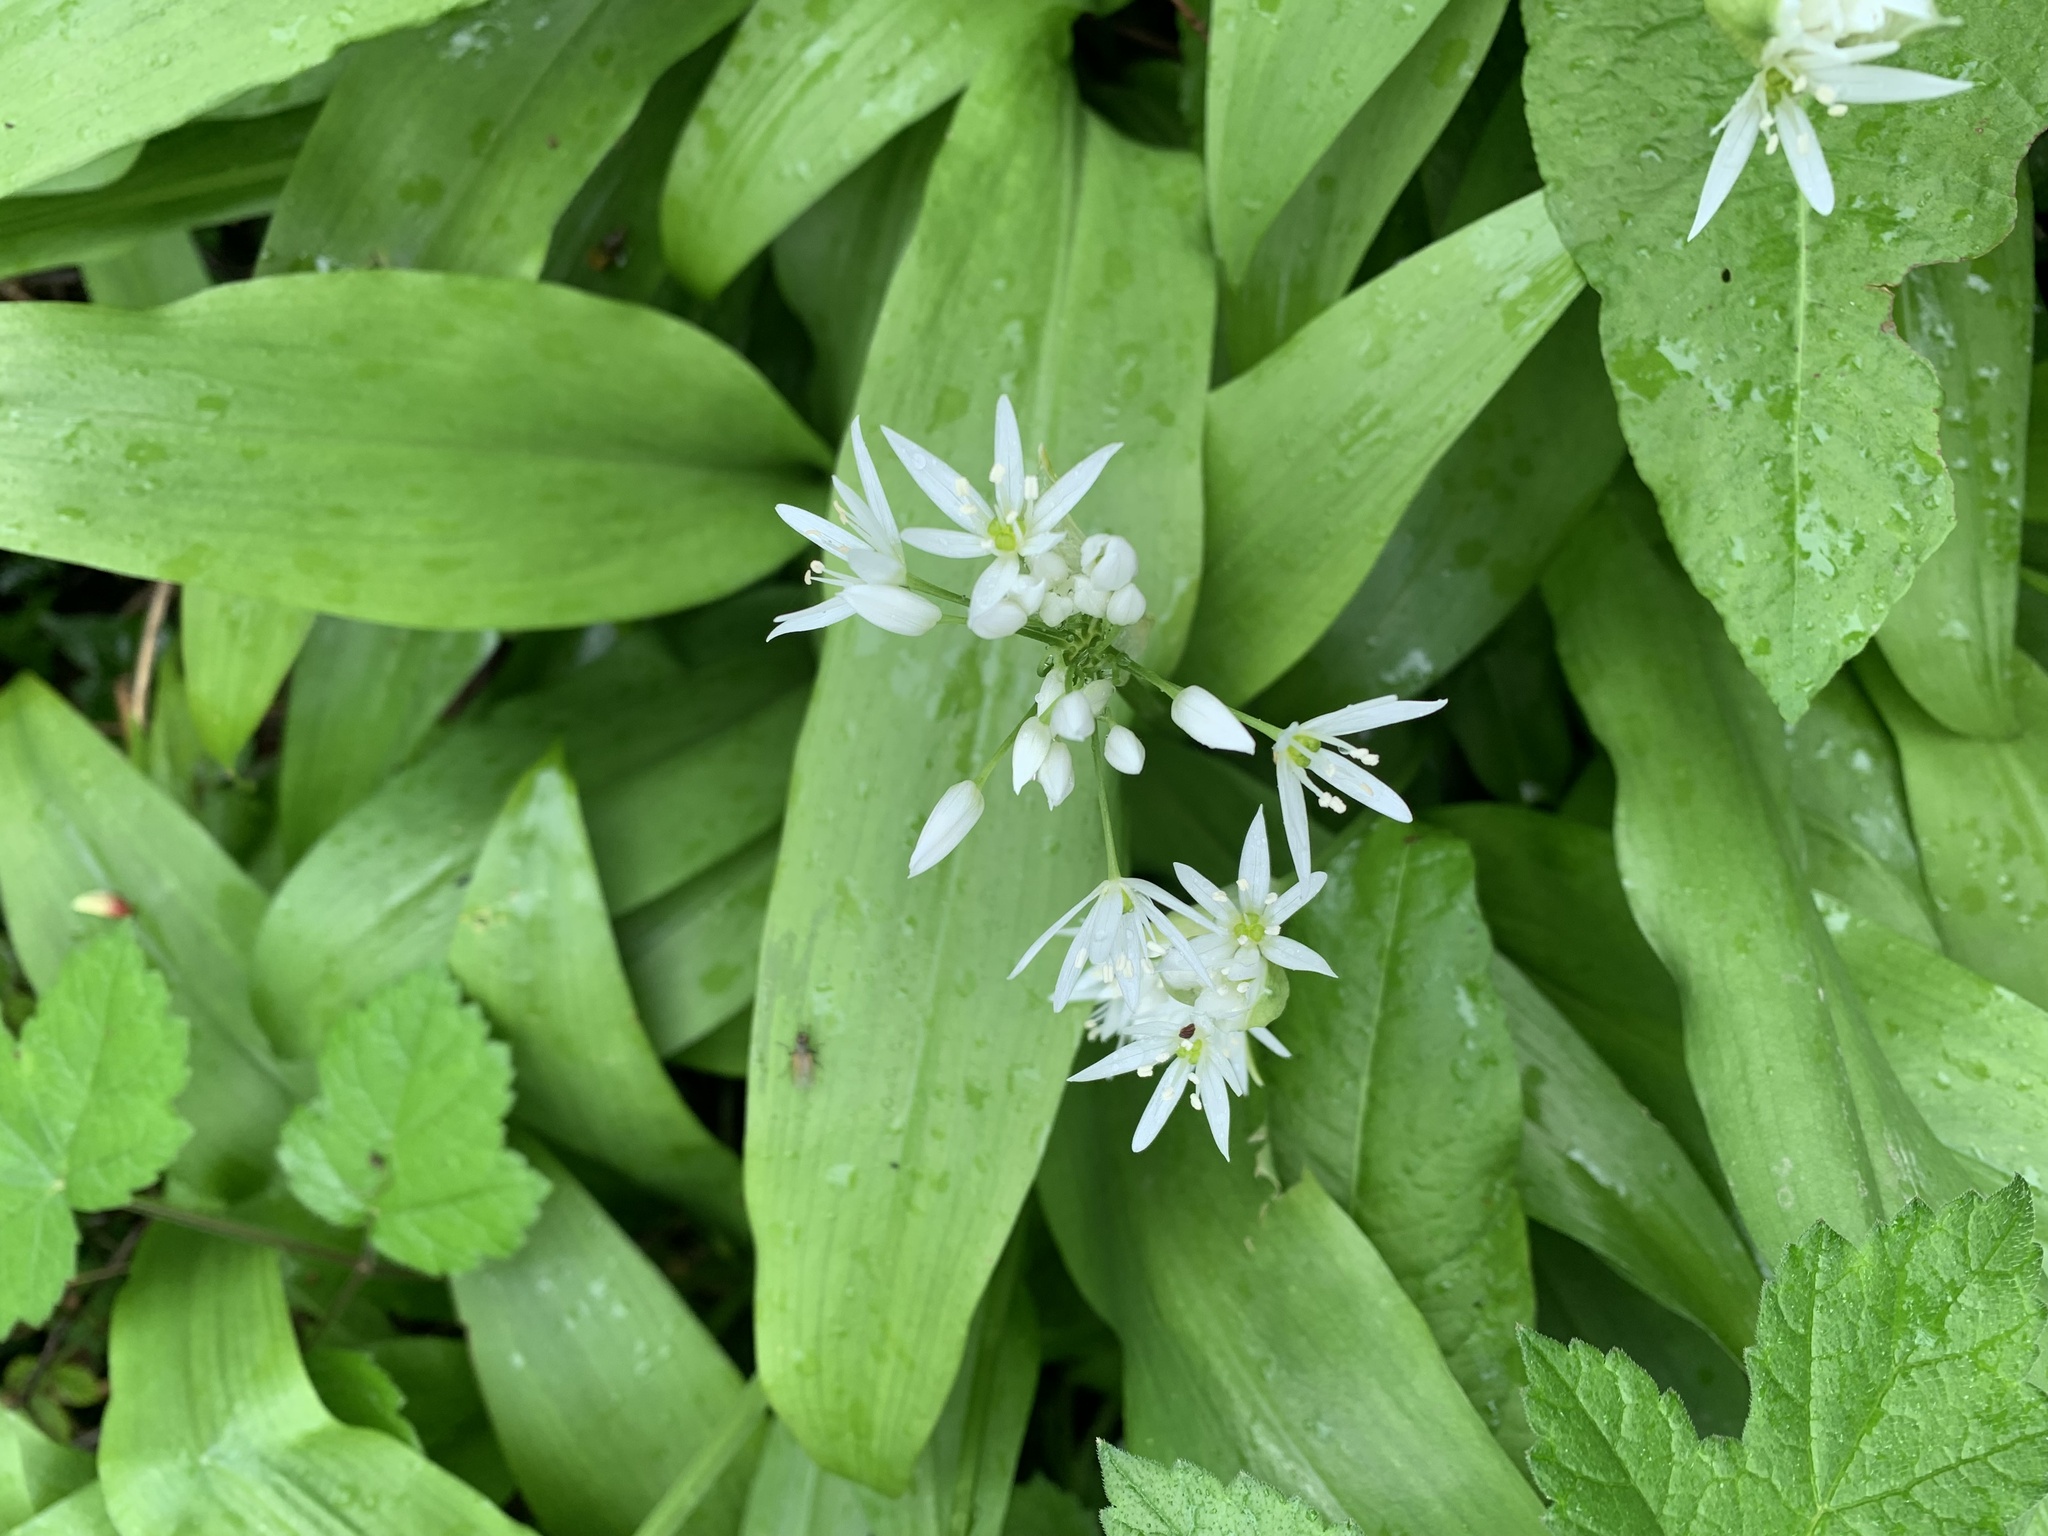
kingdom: Plantae
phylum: Tracheophyta
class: Liliopsida
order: Asparagales
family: Amaryllidaceae
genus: Allium
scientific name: Allium ursinum
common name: Ramsons
